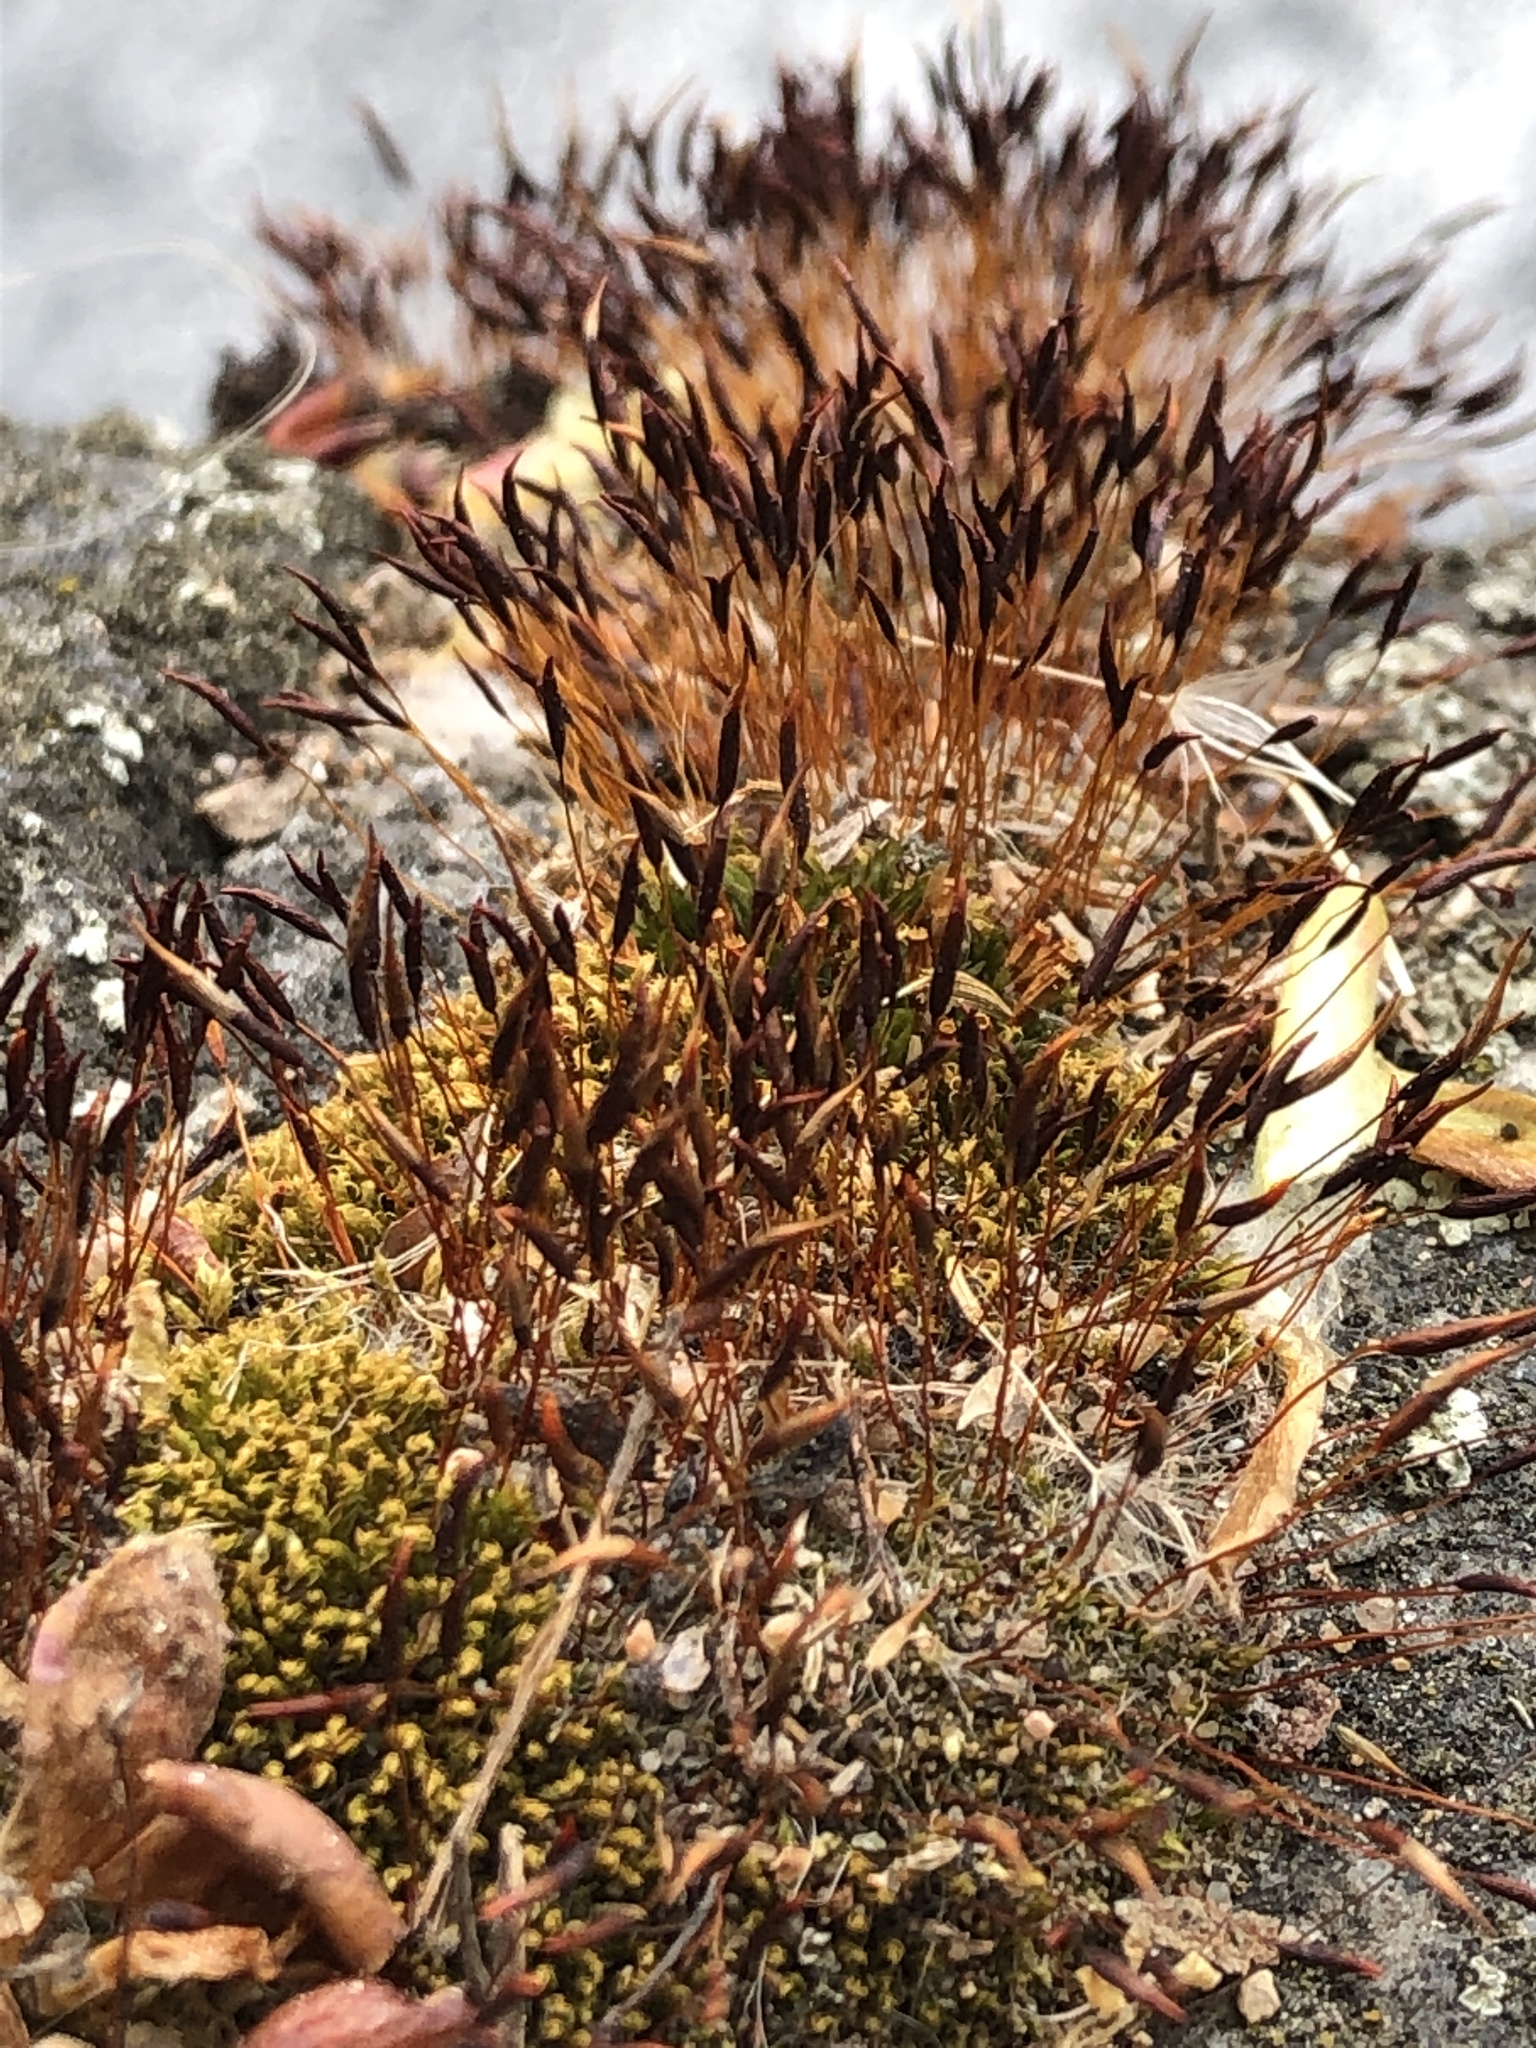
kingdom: Plantae
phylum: Bryophyta
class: Bryopsida
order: Pottiales
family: Pottiaceae
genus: Tortula
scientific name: Tortula muralis
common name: Wall screw-moss
